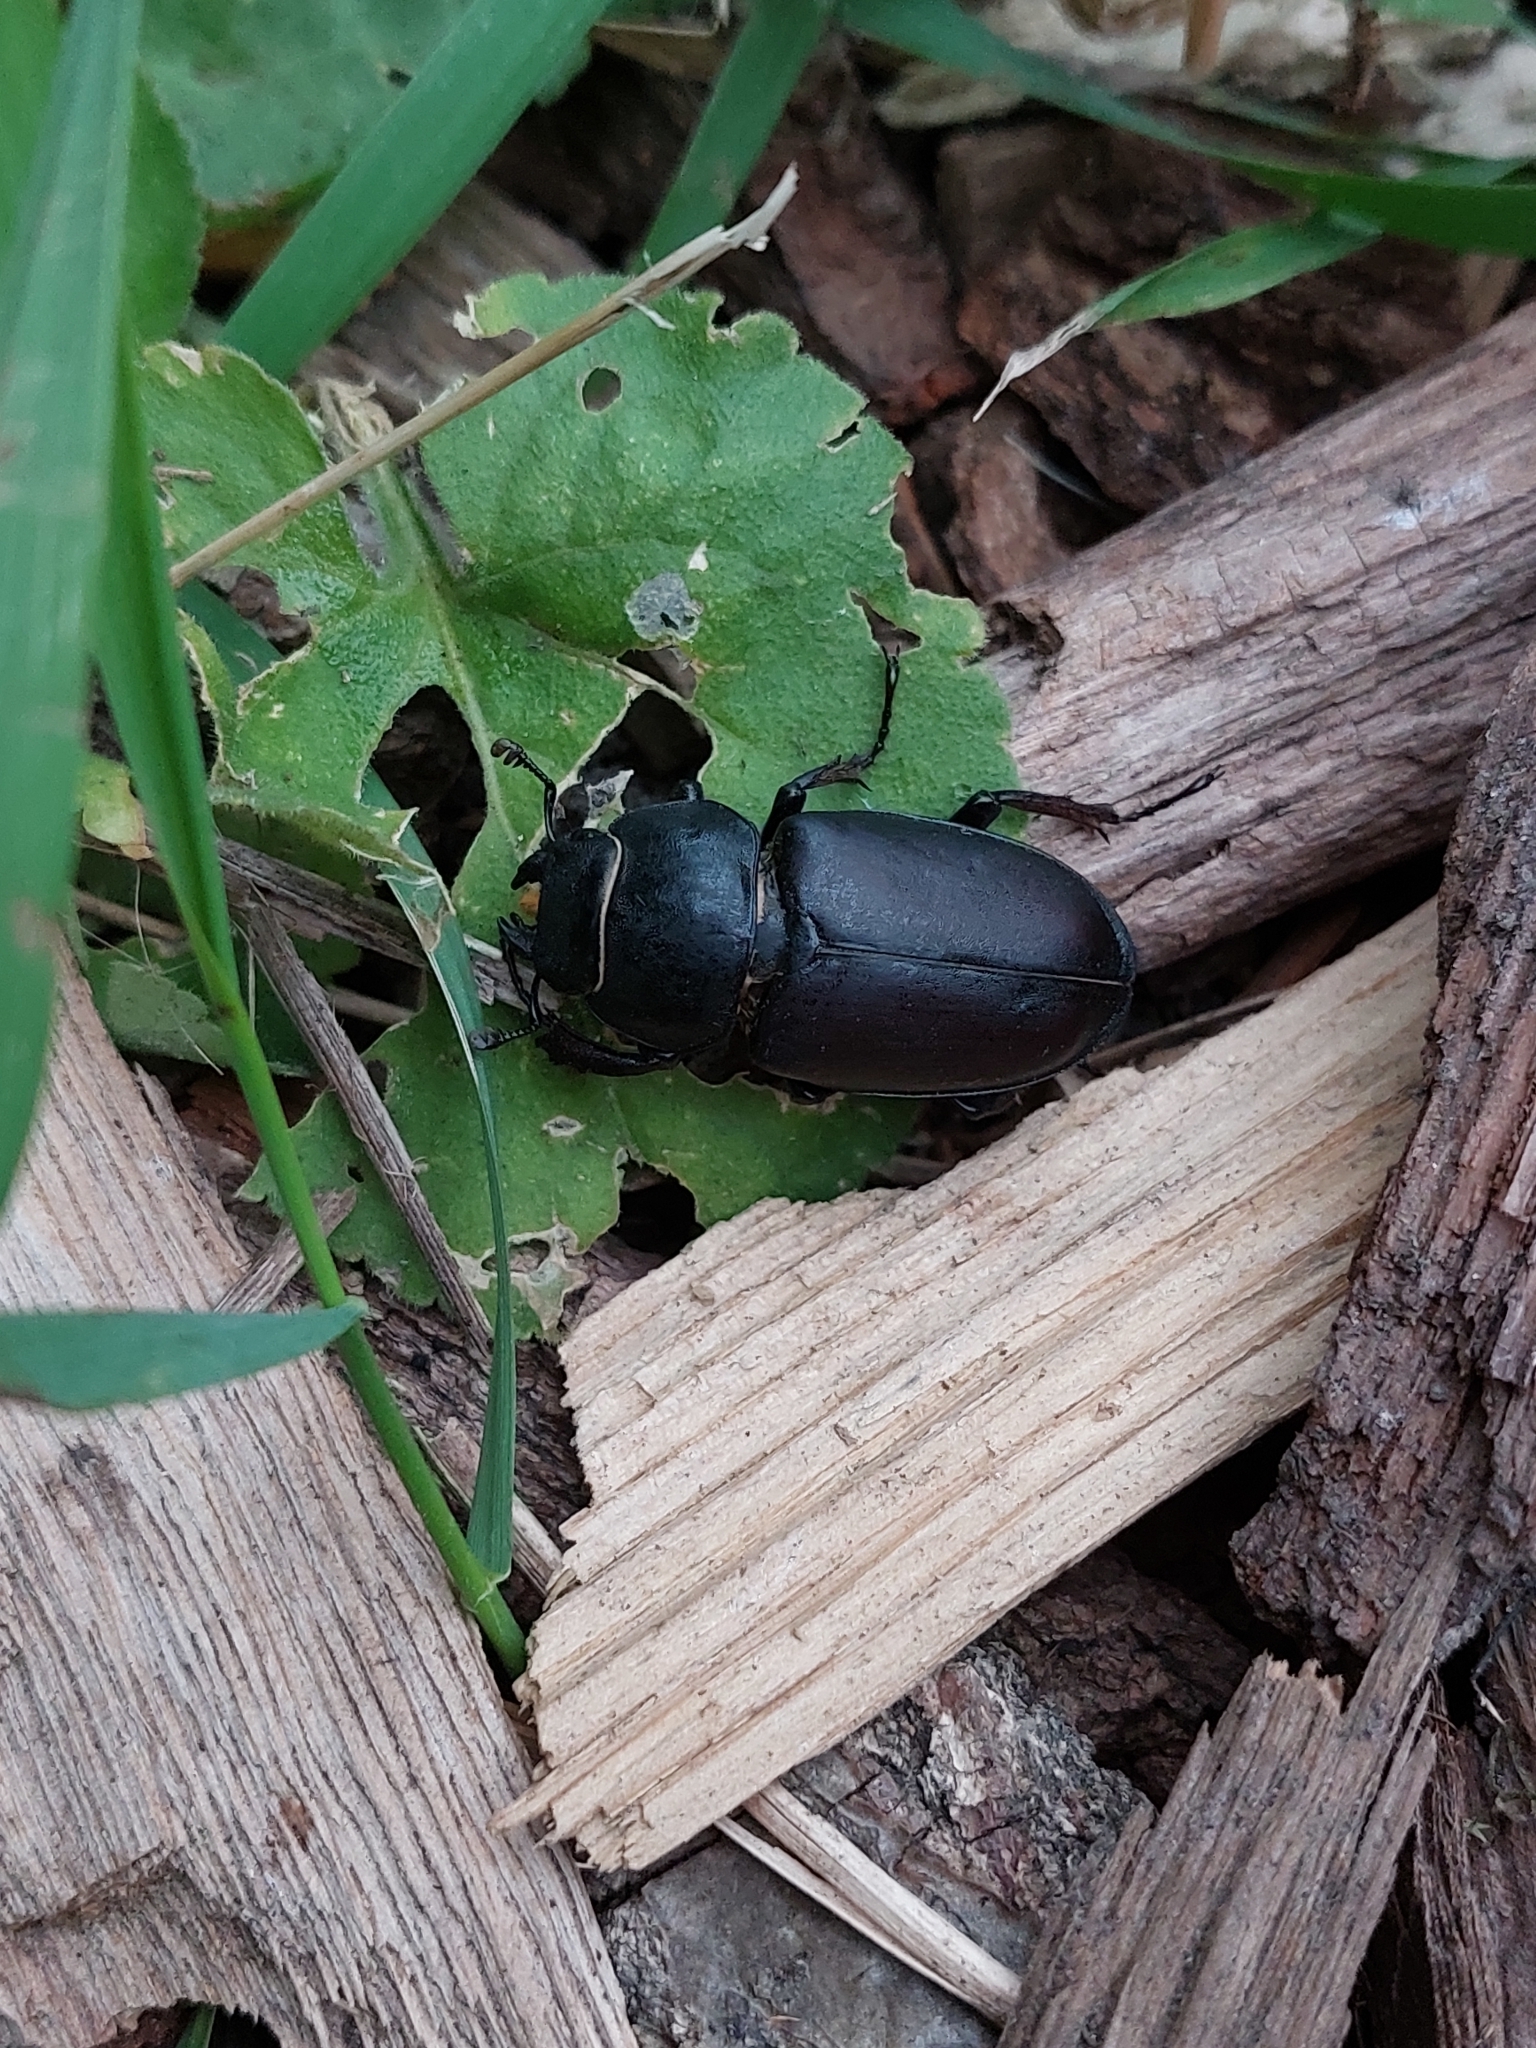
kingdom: Animalia
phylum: Arthropoda
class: Insecta
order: Coleoptera
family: Lucanidae
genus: Lucanus
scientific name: Lucanus cervus
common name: Stag beetle
